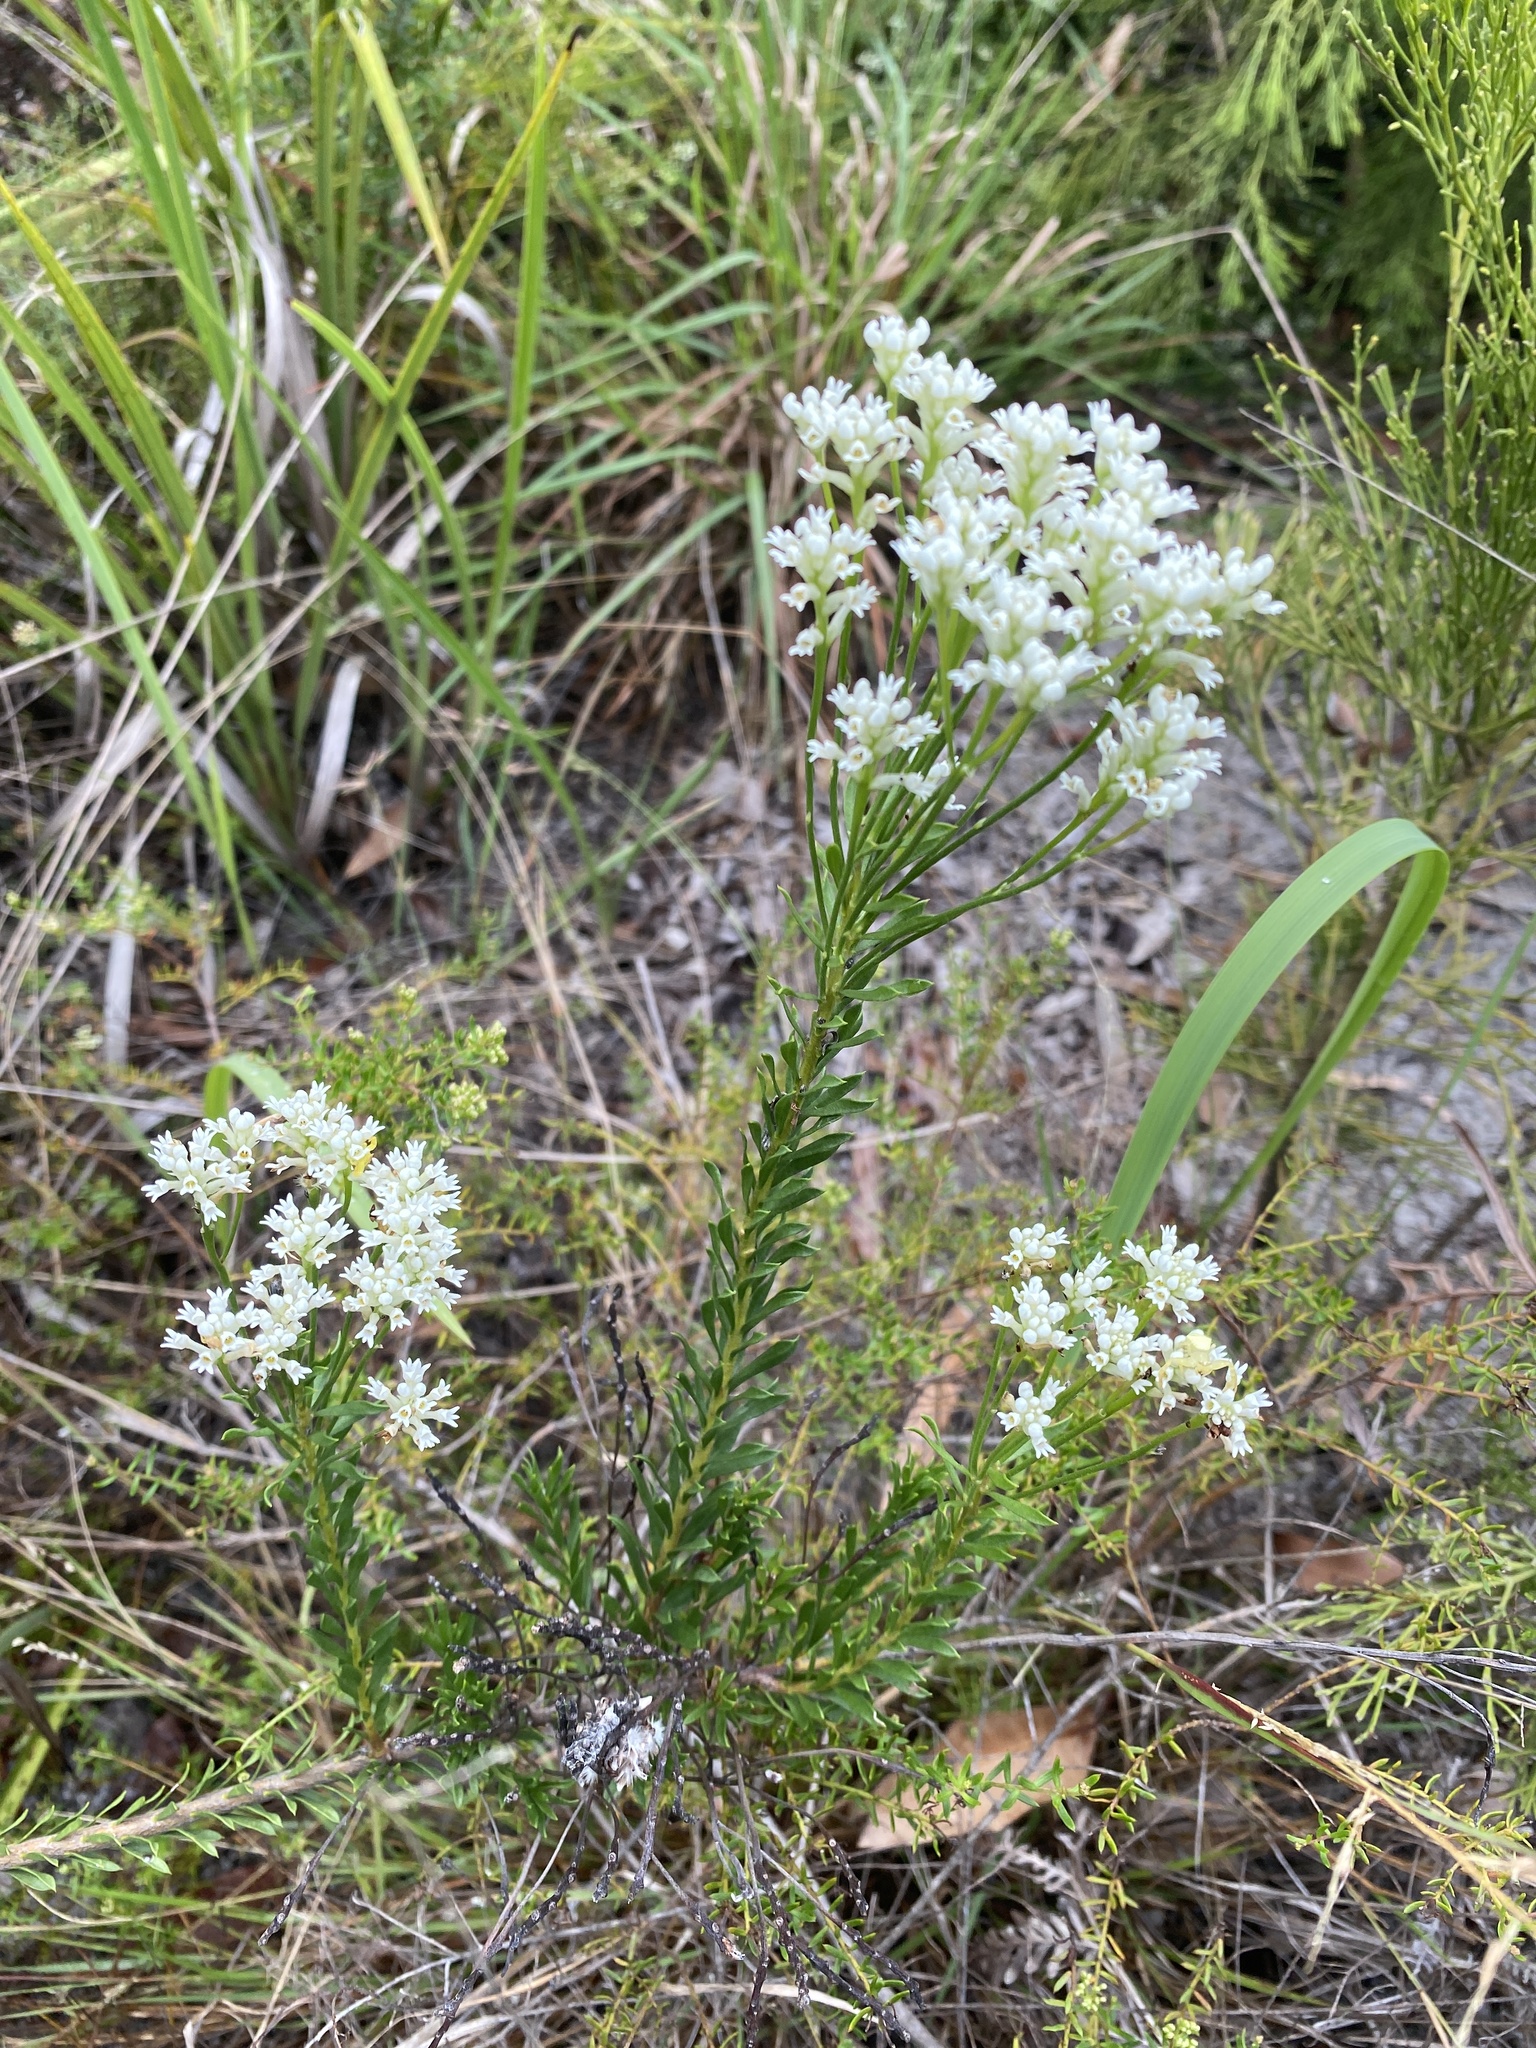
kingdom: Plantae
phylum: Tracheophyta
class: Magnoliopsida
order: Proteales
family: Proteaceae
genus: Conospermum
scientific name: Conospermum taxifolium
